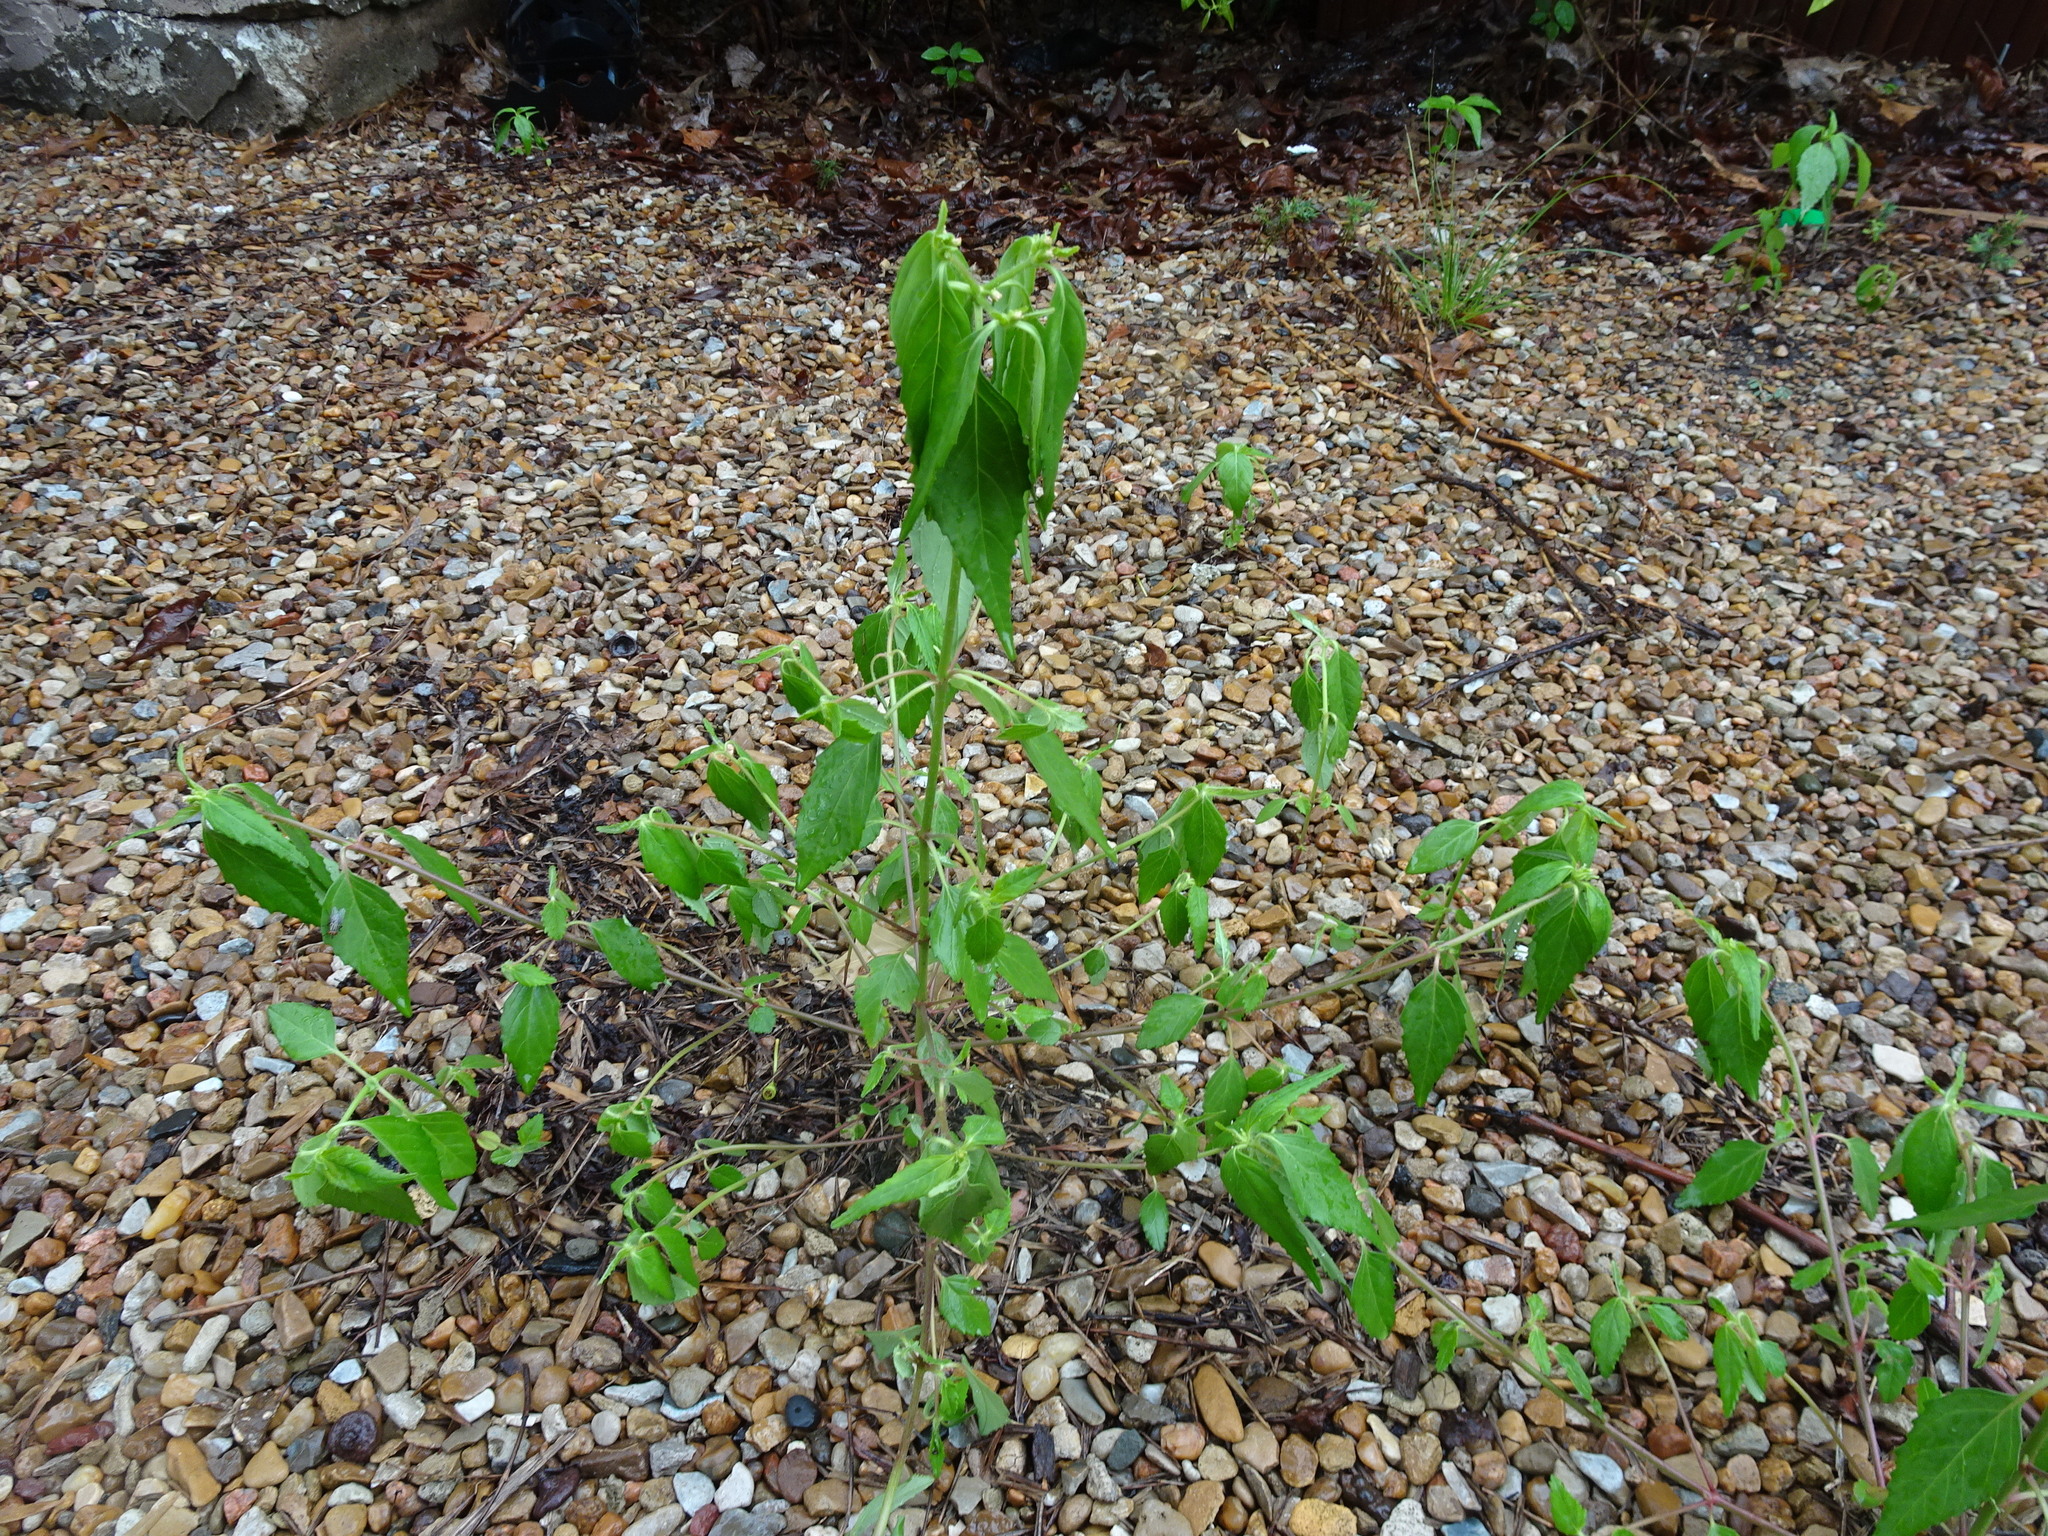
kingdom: Plantae
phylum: Tracheophyta
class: Magnoliopsida
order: Malpighiales
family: Euphorbiaceae
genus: Euphorbia
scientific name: Euphorbia dentata
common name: Dentate spurge
